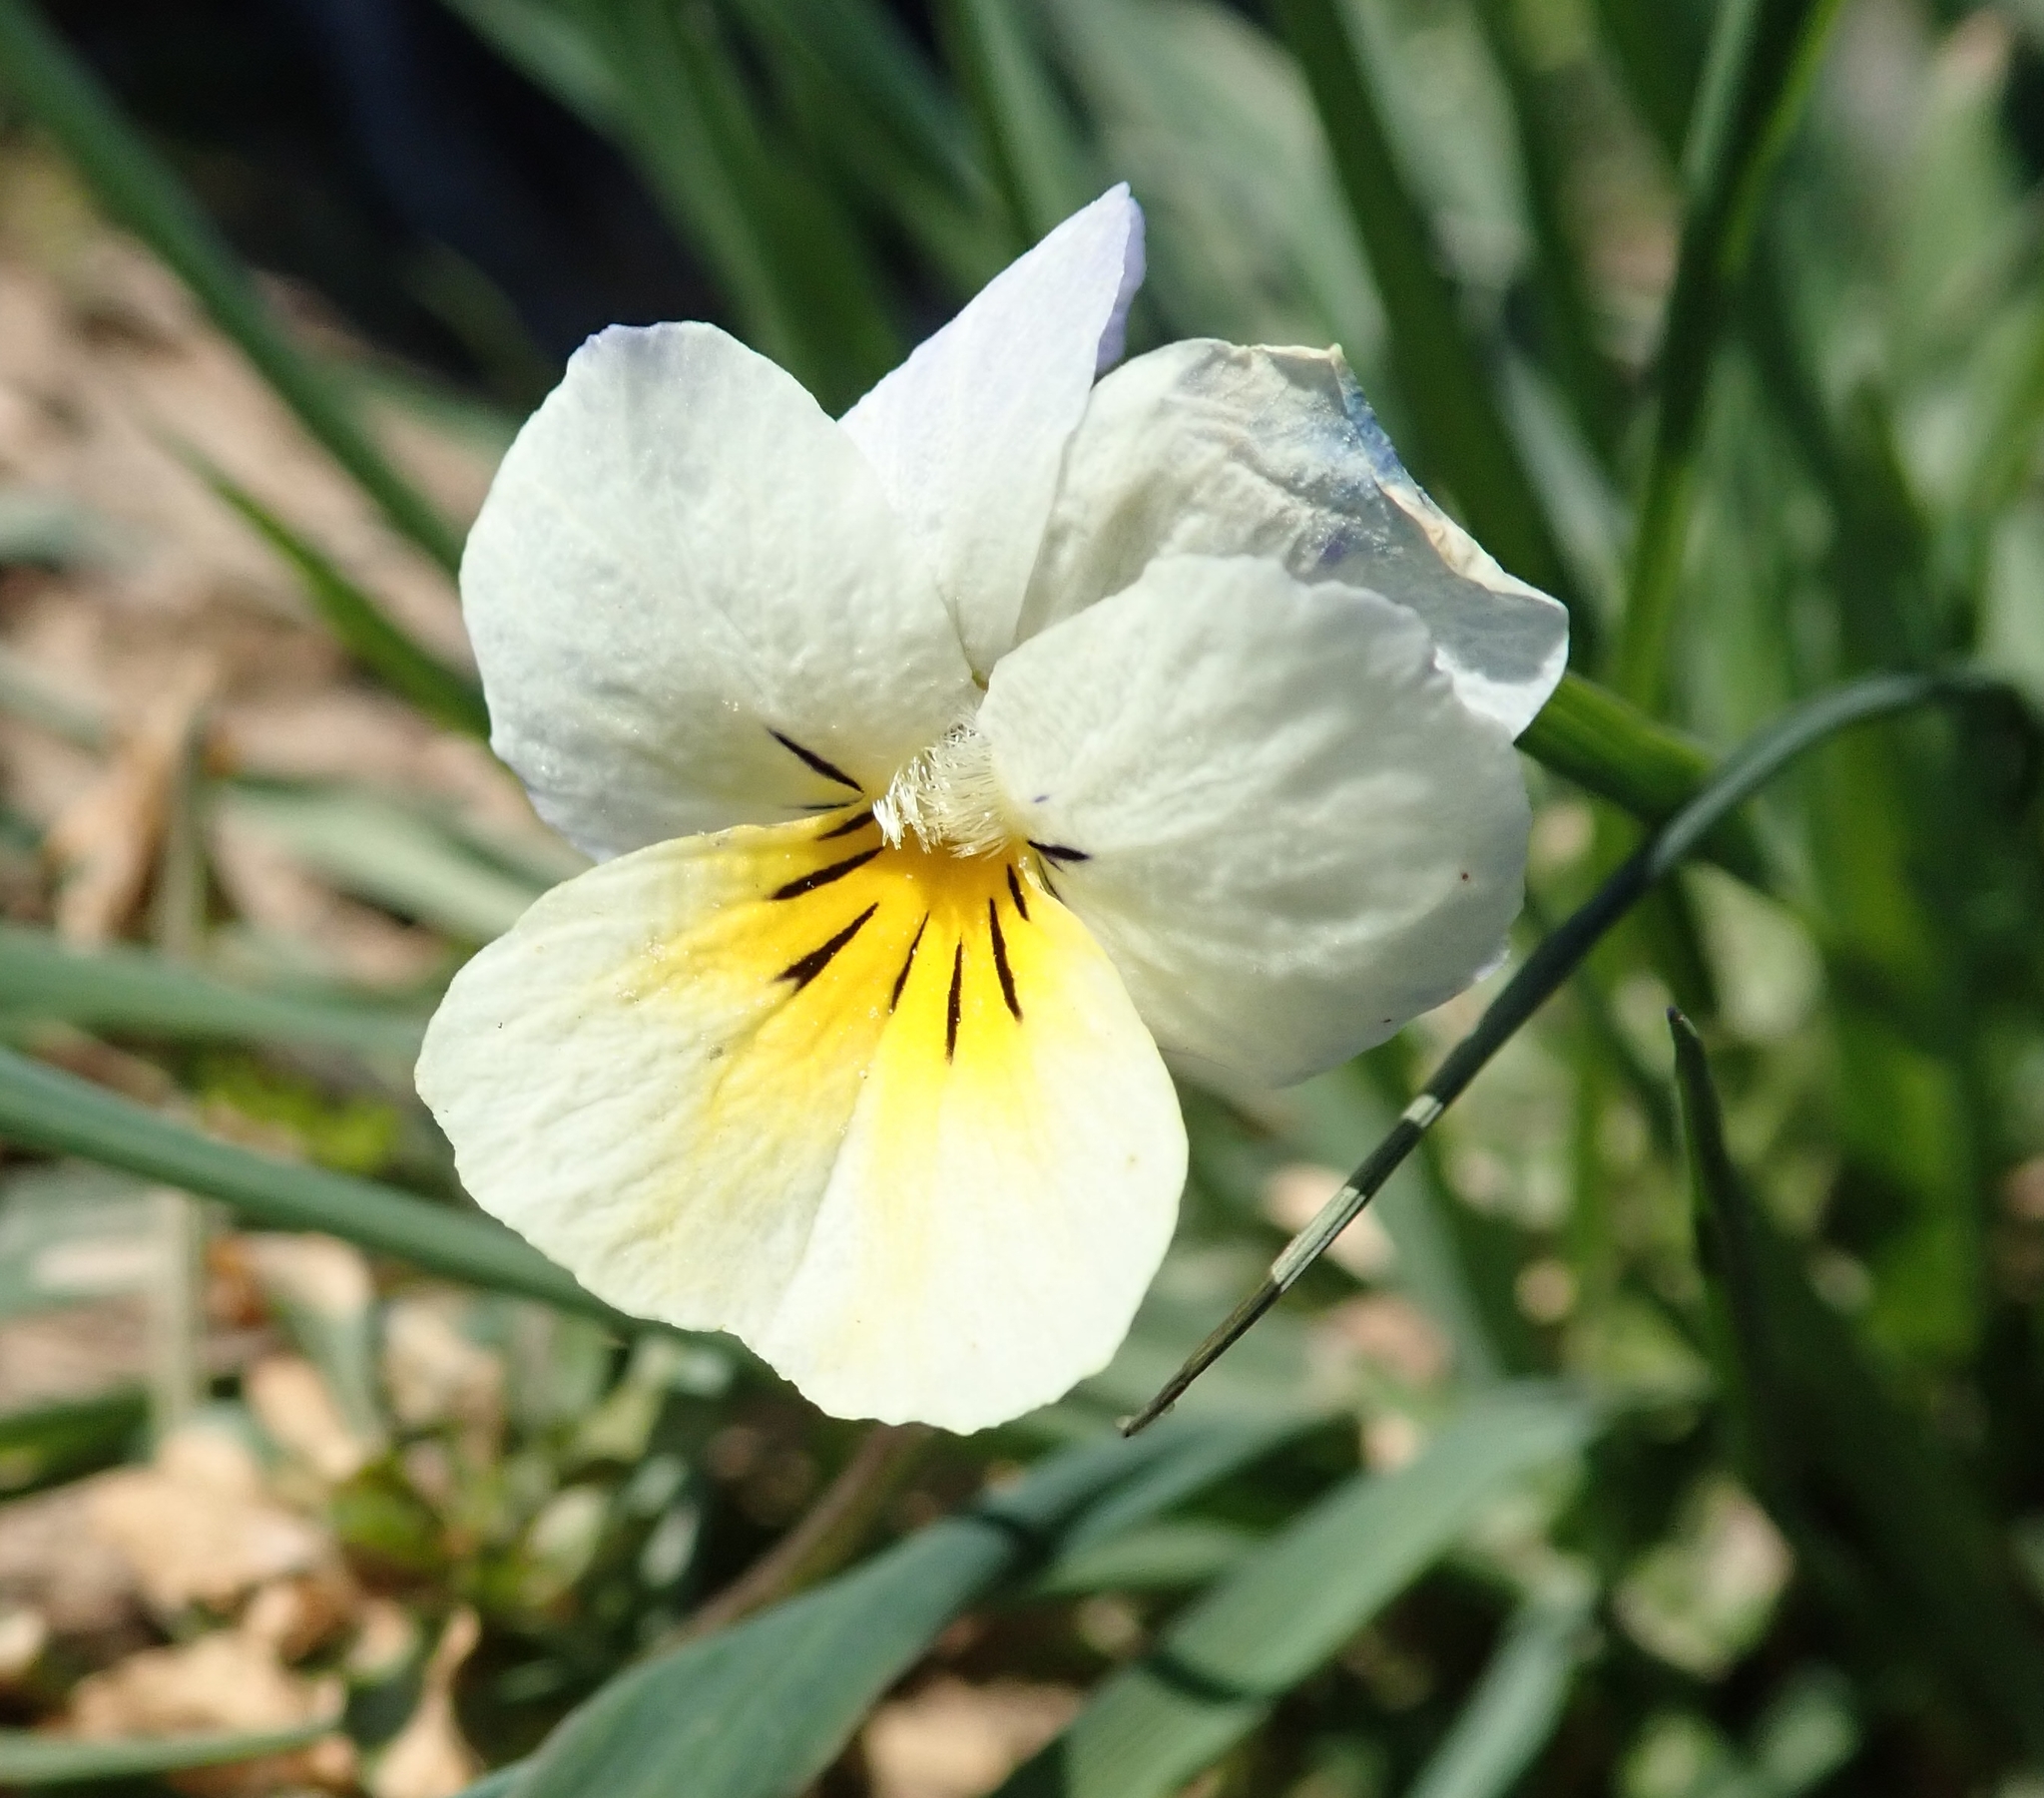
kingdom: Plantae
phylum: Tracheophyta
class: Magnoliopsida
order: Malpighiales
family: Violaceae
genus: Viola
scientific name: Viola arvensis
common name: Field pansy
